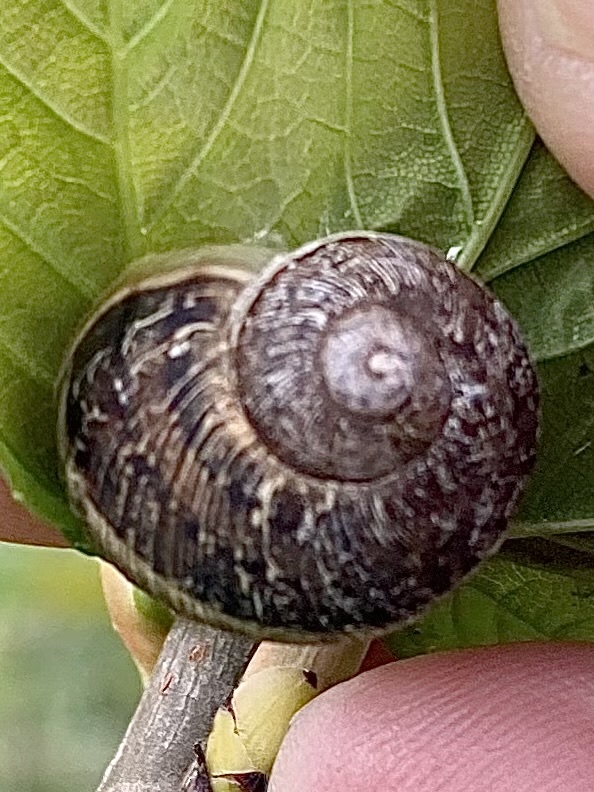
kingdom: Animalia
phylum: Mollusca
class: Gastropoda
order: Stylommatophora
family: Helicidae
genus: Cornu
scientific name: Cornu aspersum
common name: Brown garden snail
